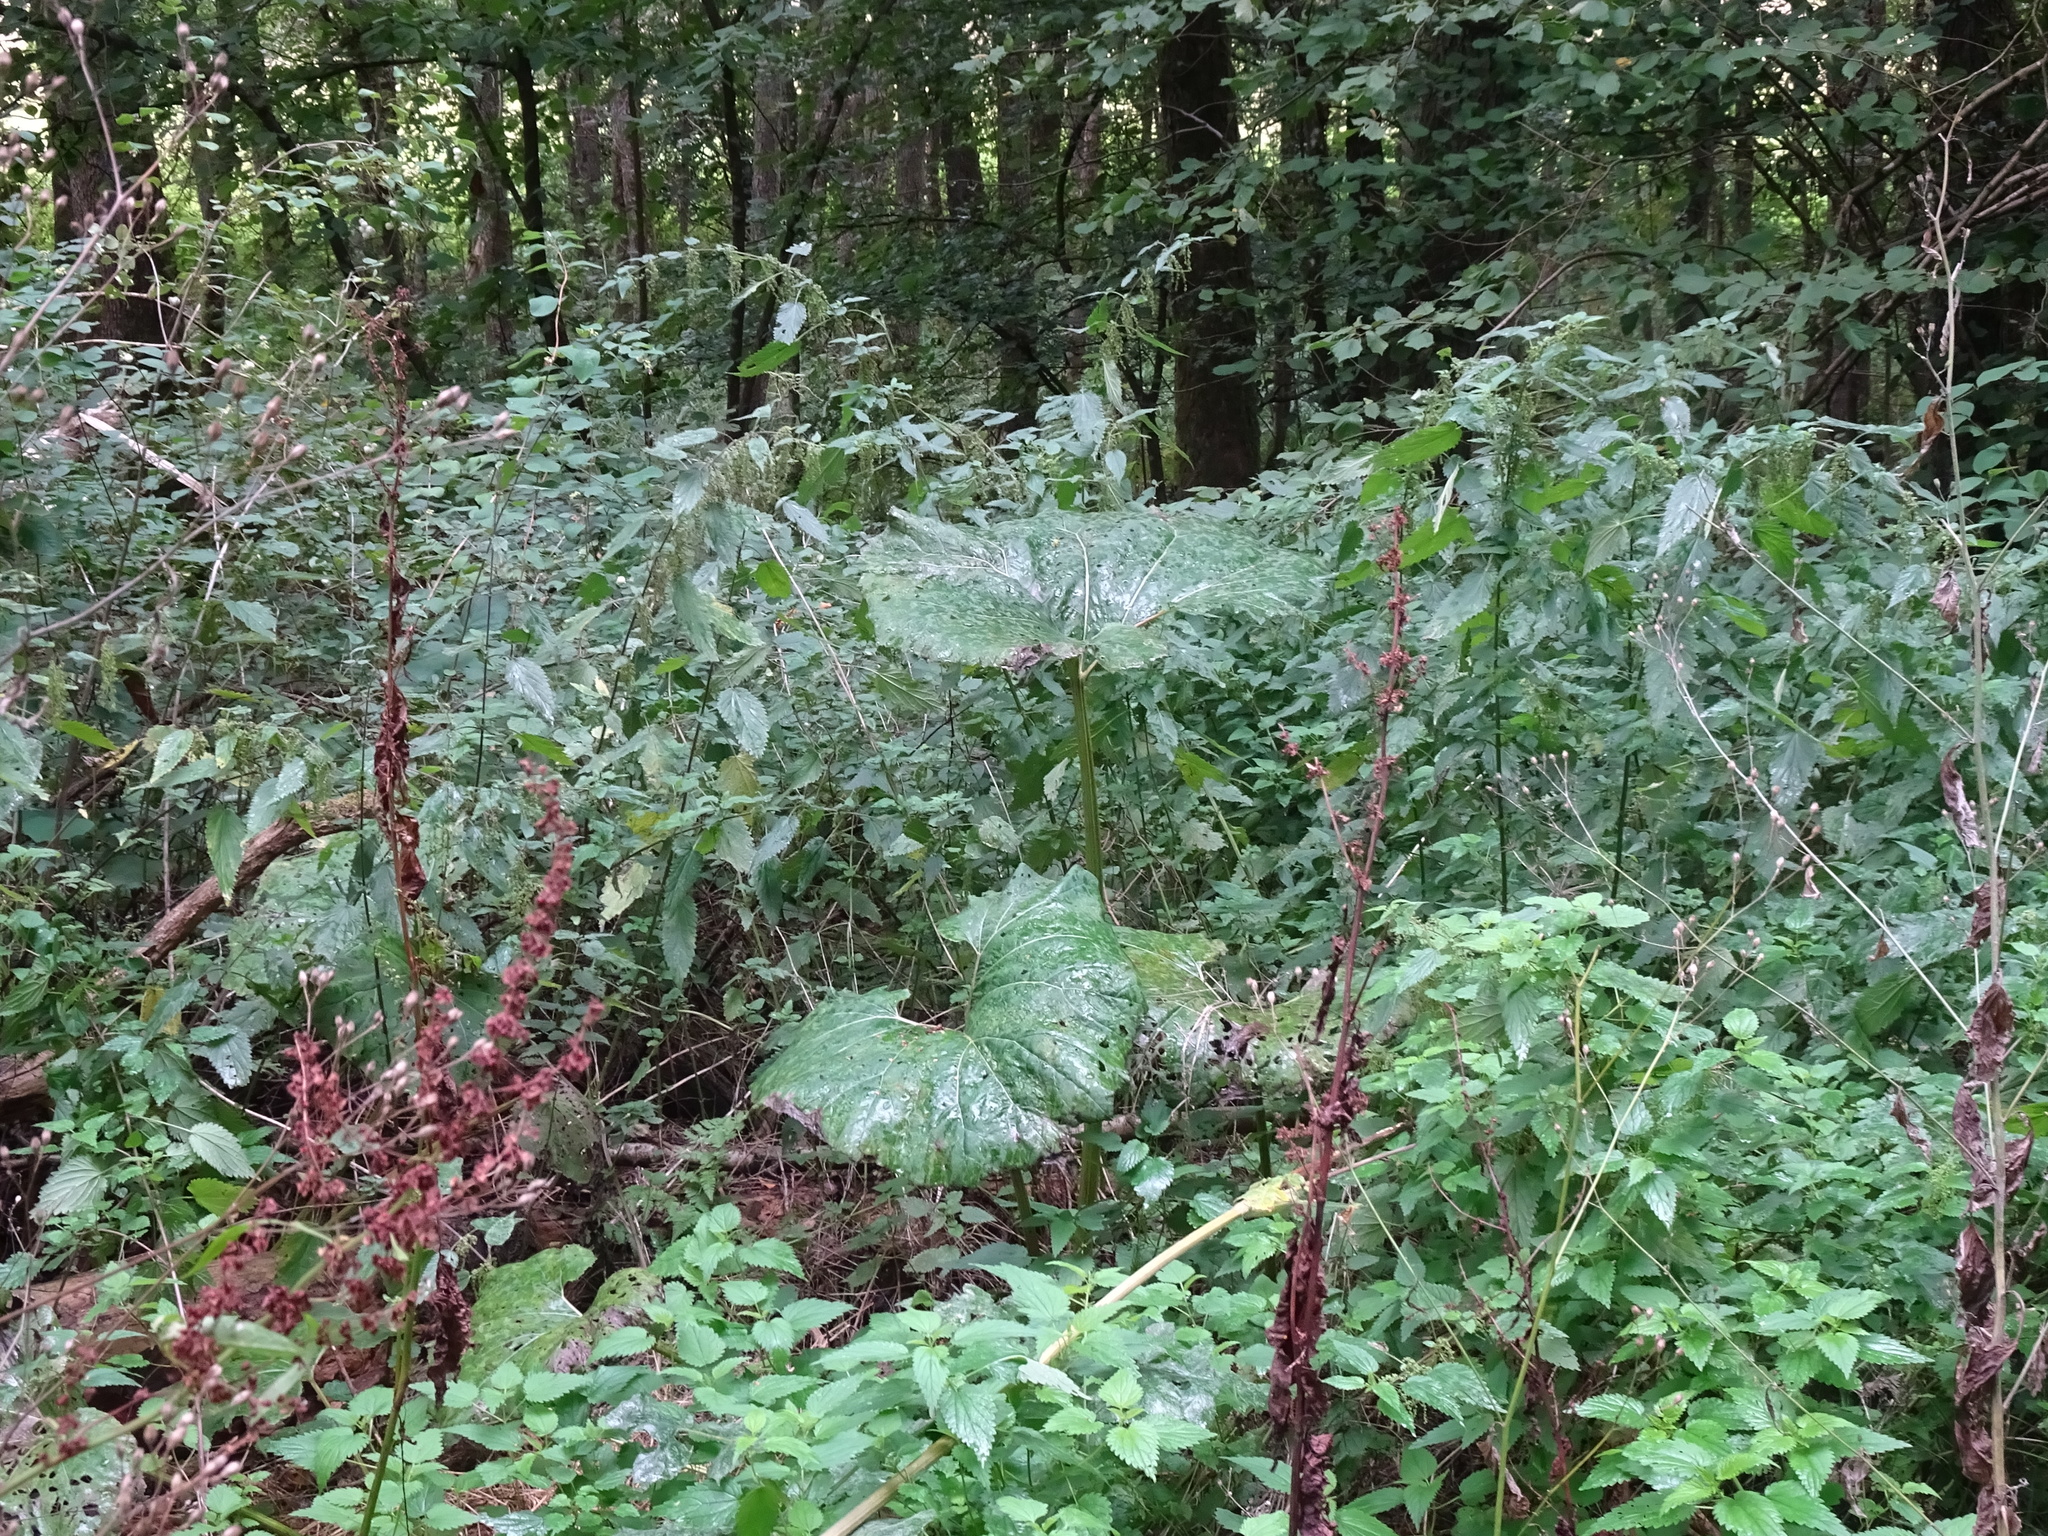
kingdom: Plantae
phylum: Tracheophyta
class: Magnoliopsida
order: Asterales
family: Asteraceae
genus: Petasites
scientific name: Petasites hybridus
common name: Butterbur
